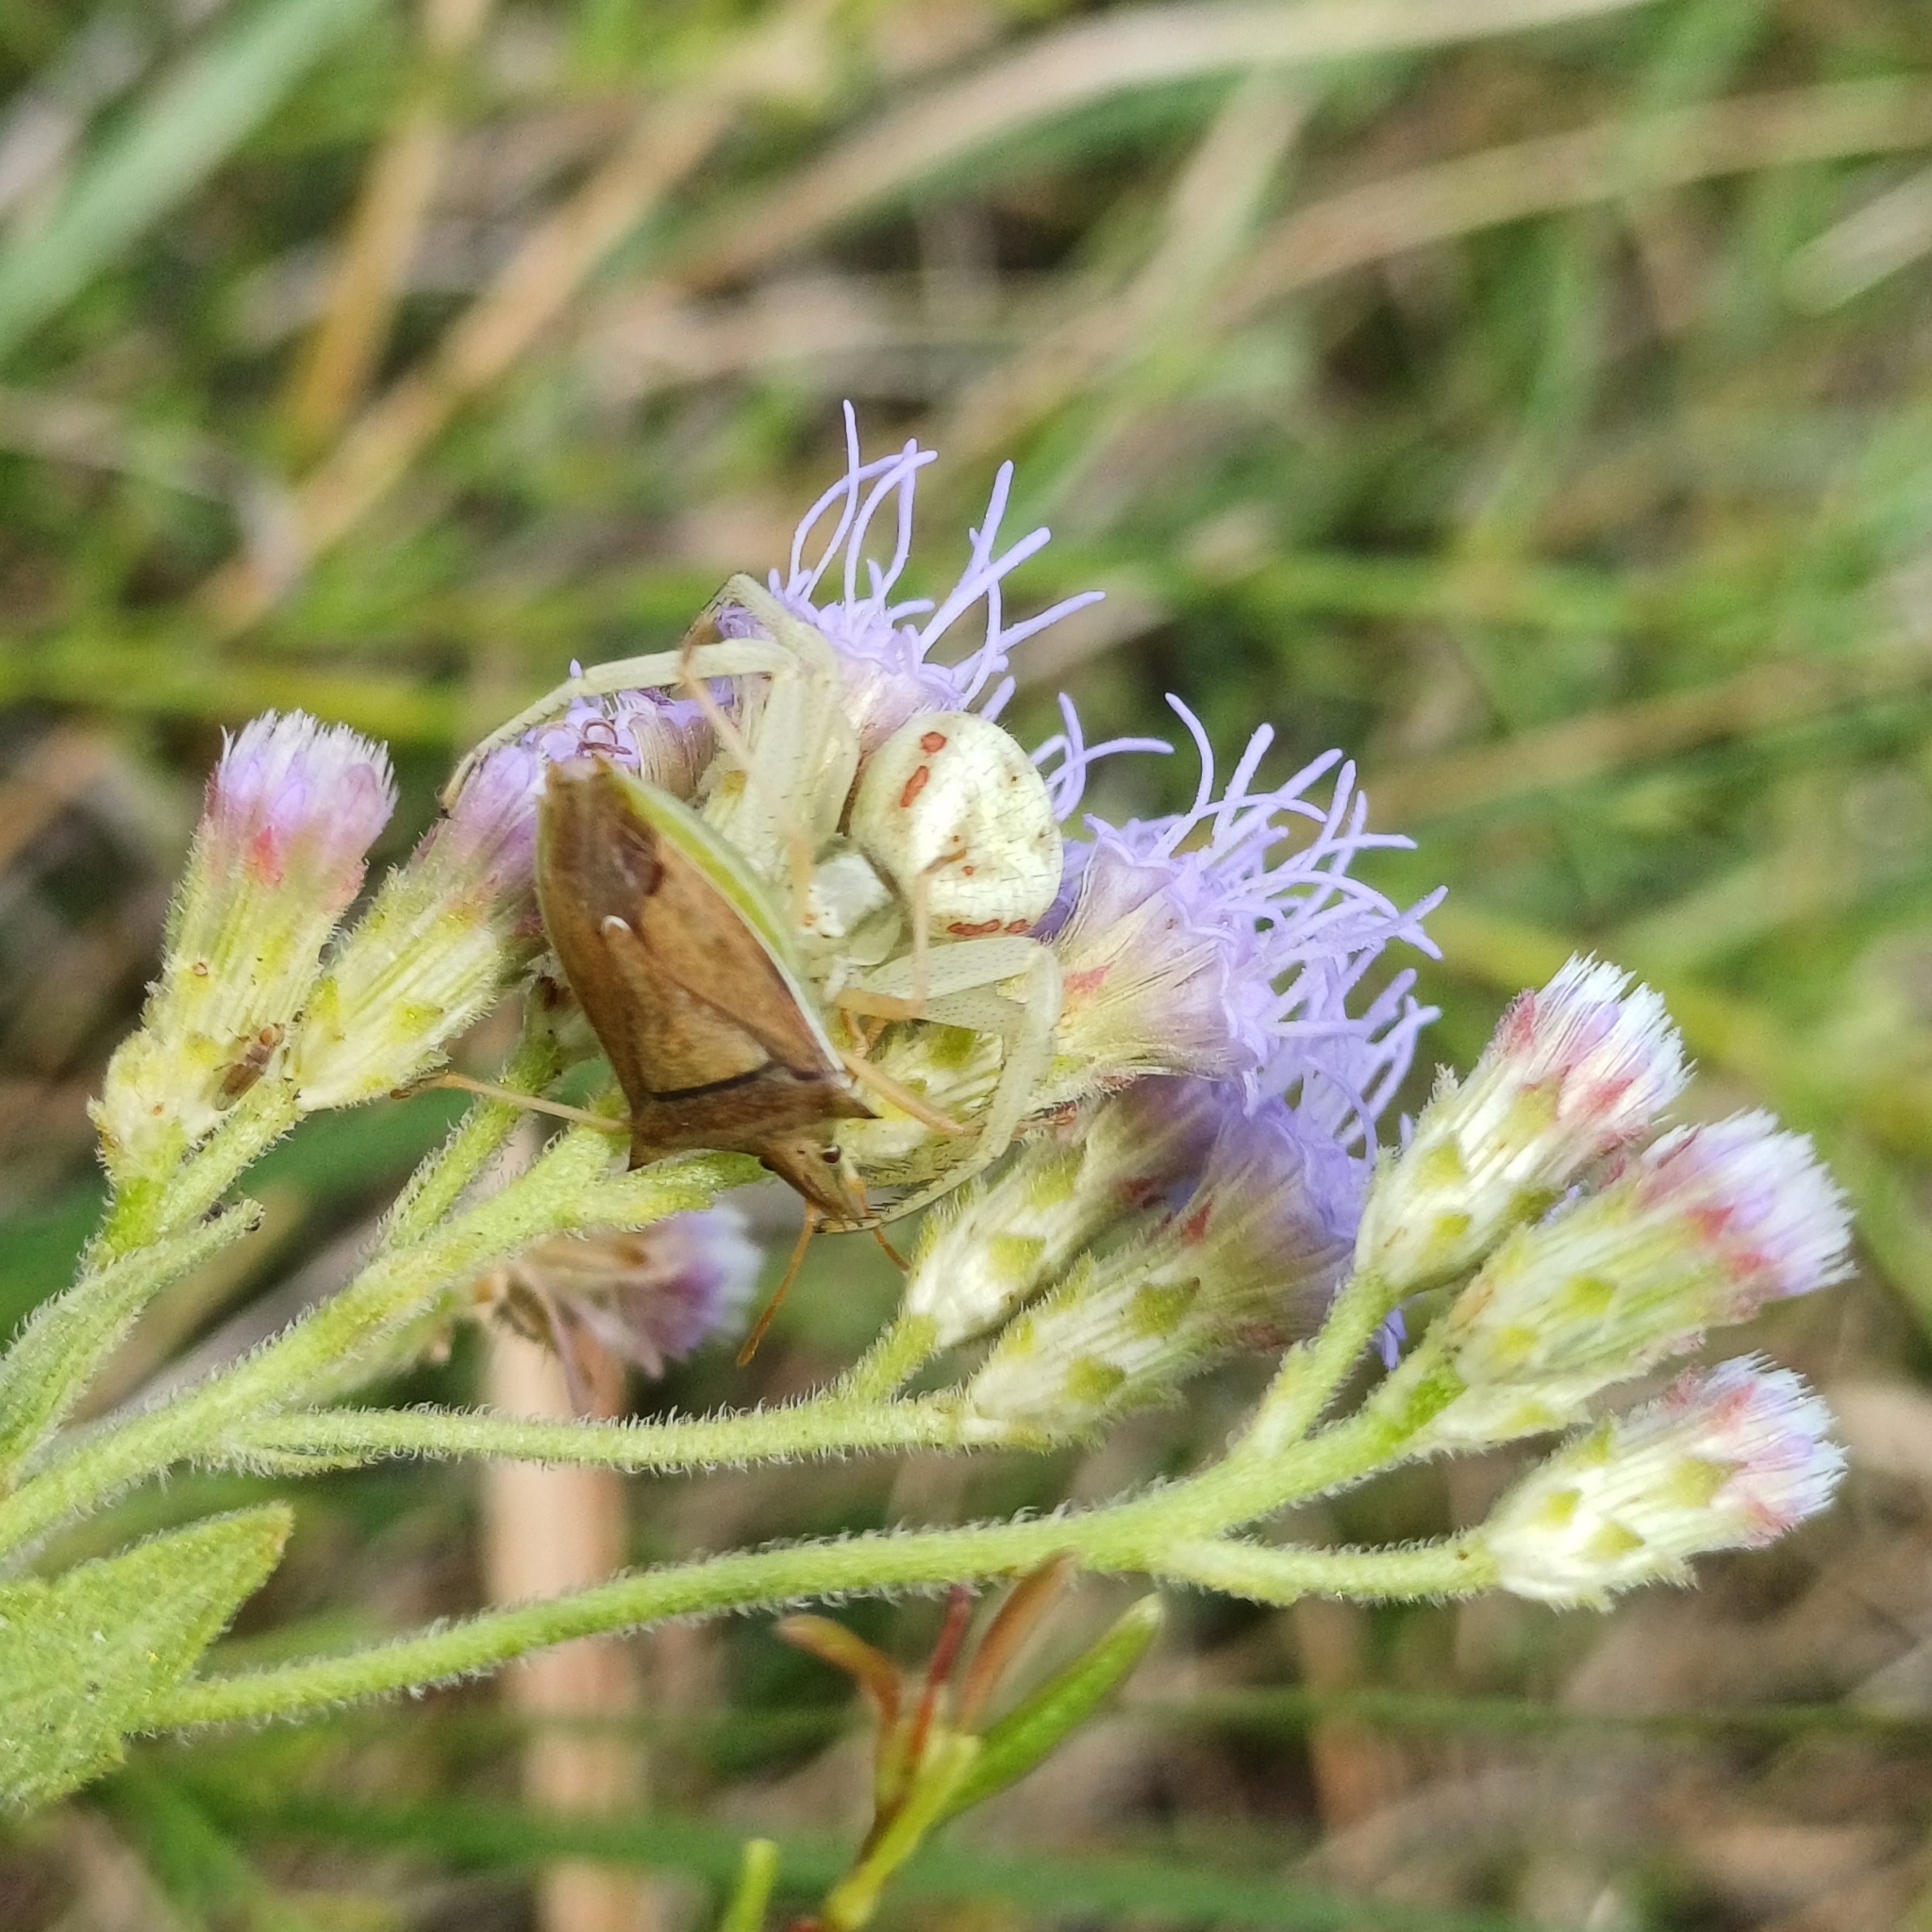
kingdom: Animalia
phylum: Arthropoda
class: Insecta
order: Hemiptera
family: Pentatomidae
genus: Diceraeus
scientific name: Diceraeus furcatus
